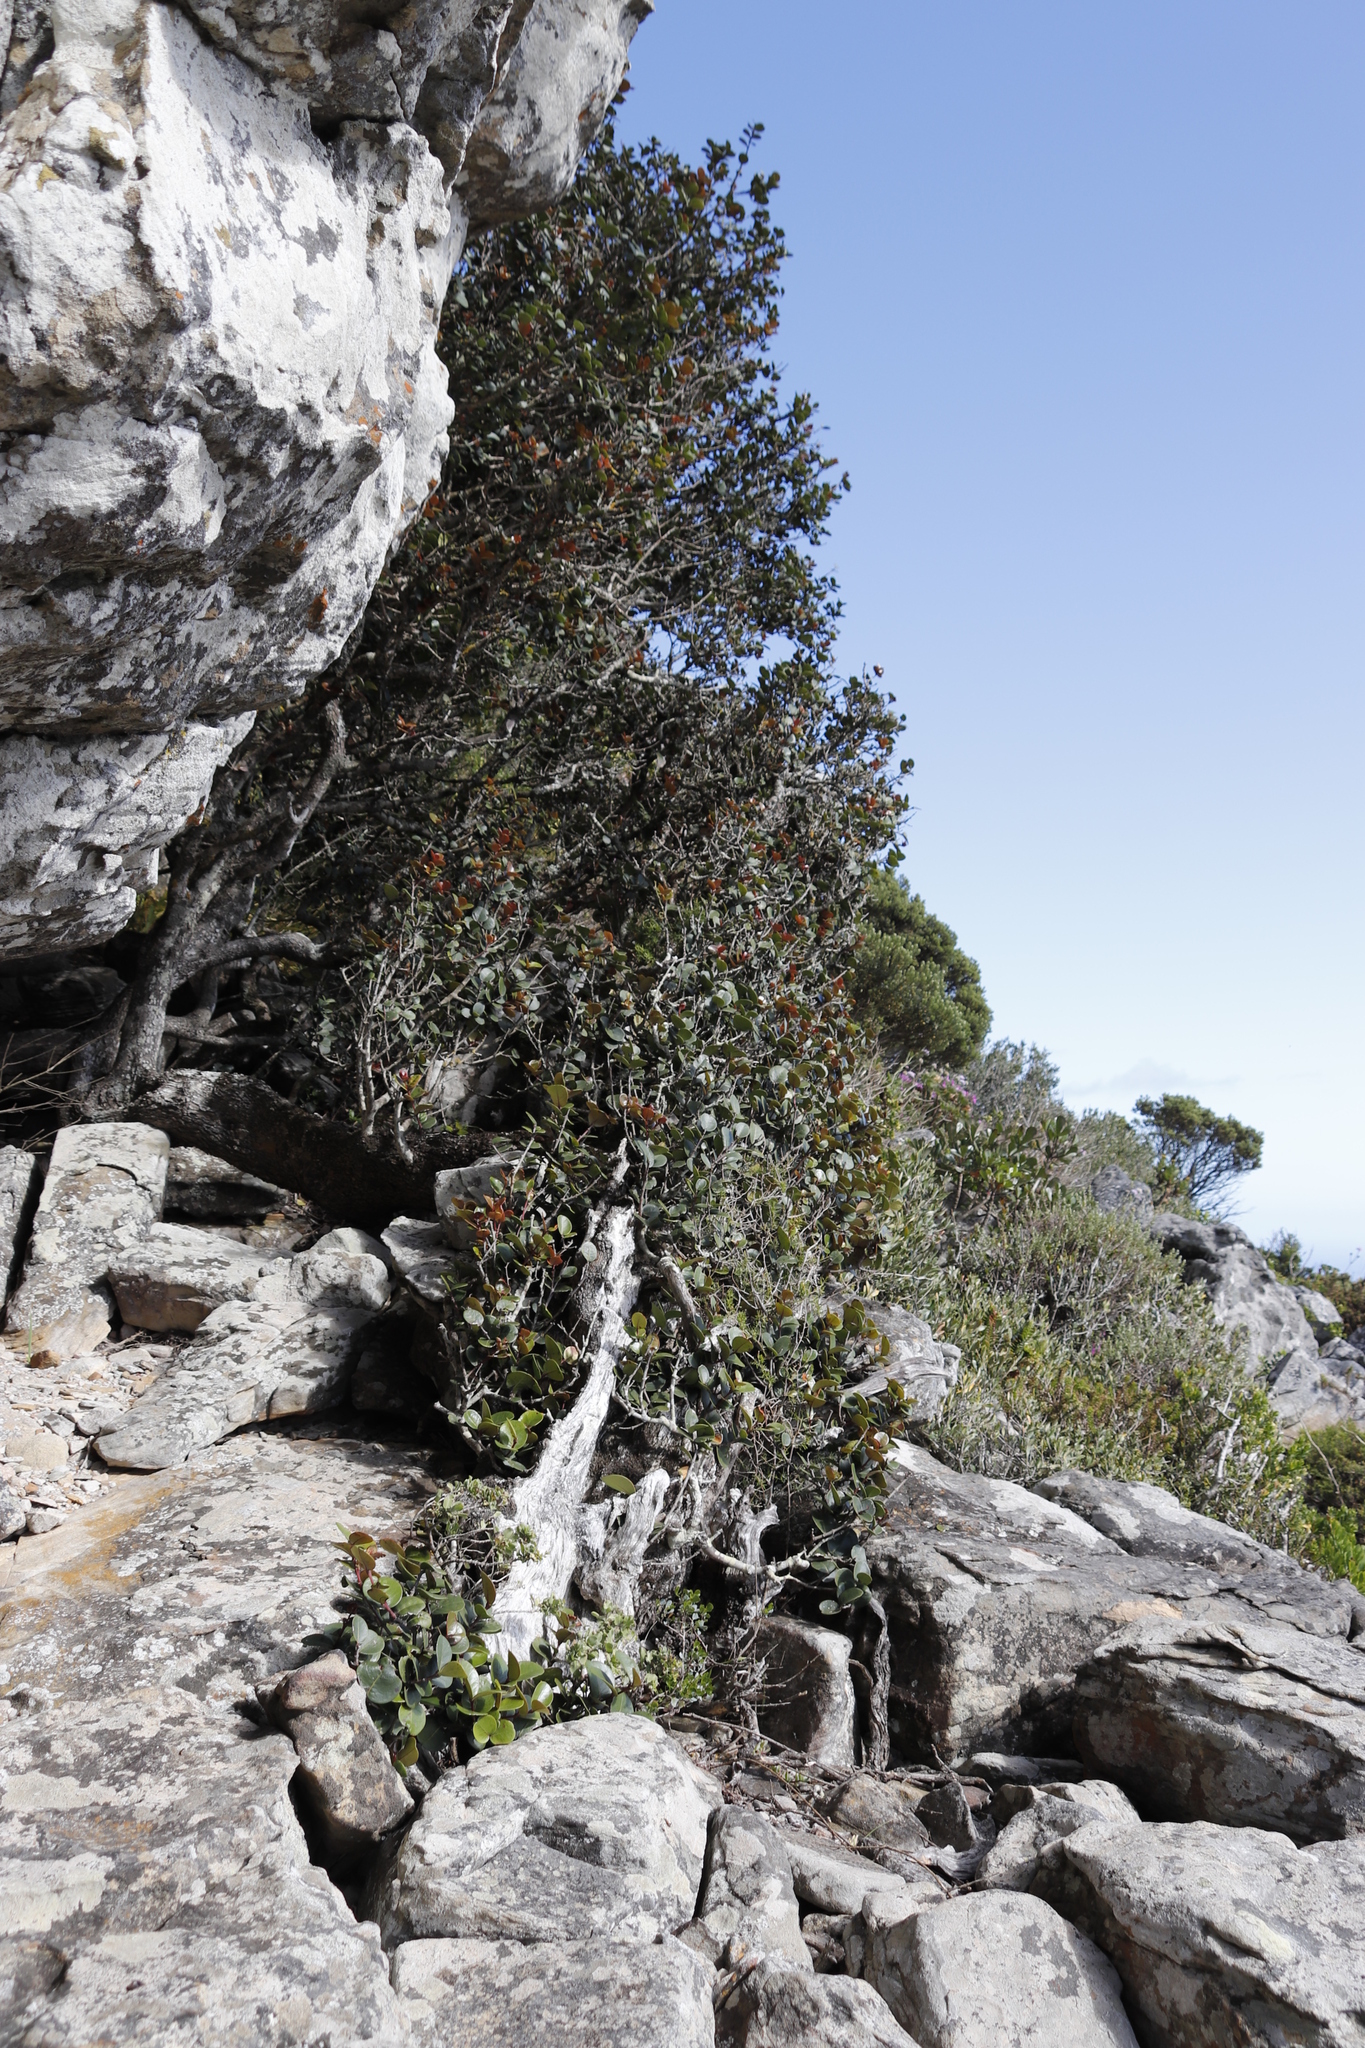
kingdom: Plantae
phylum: Tracheophyta
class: Magnoliopsida
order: Celastrales
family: Celastraceae
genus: Maurocenia
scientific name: Maurocenia frangula
